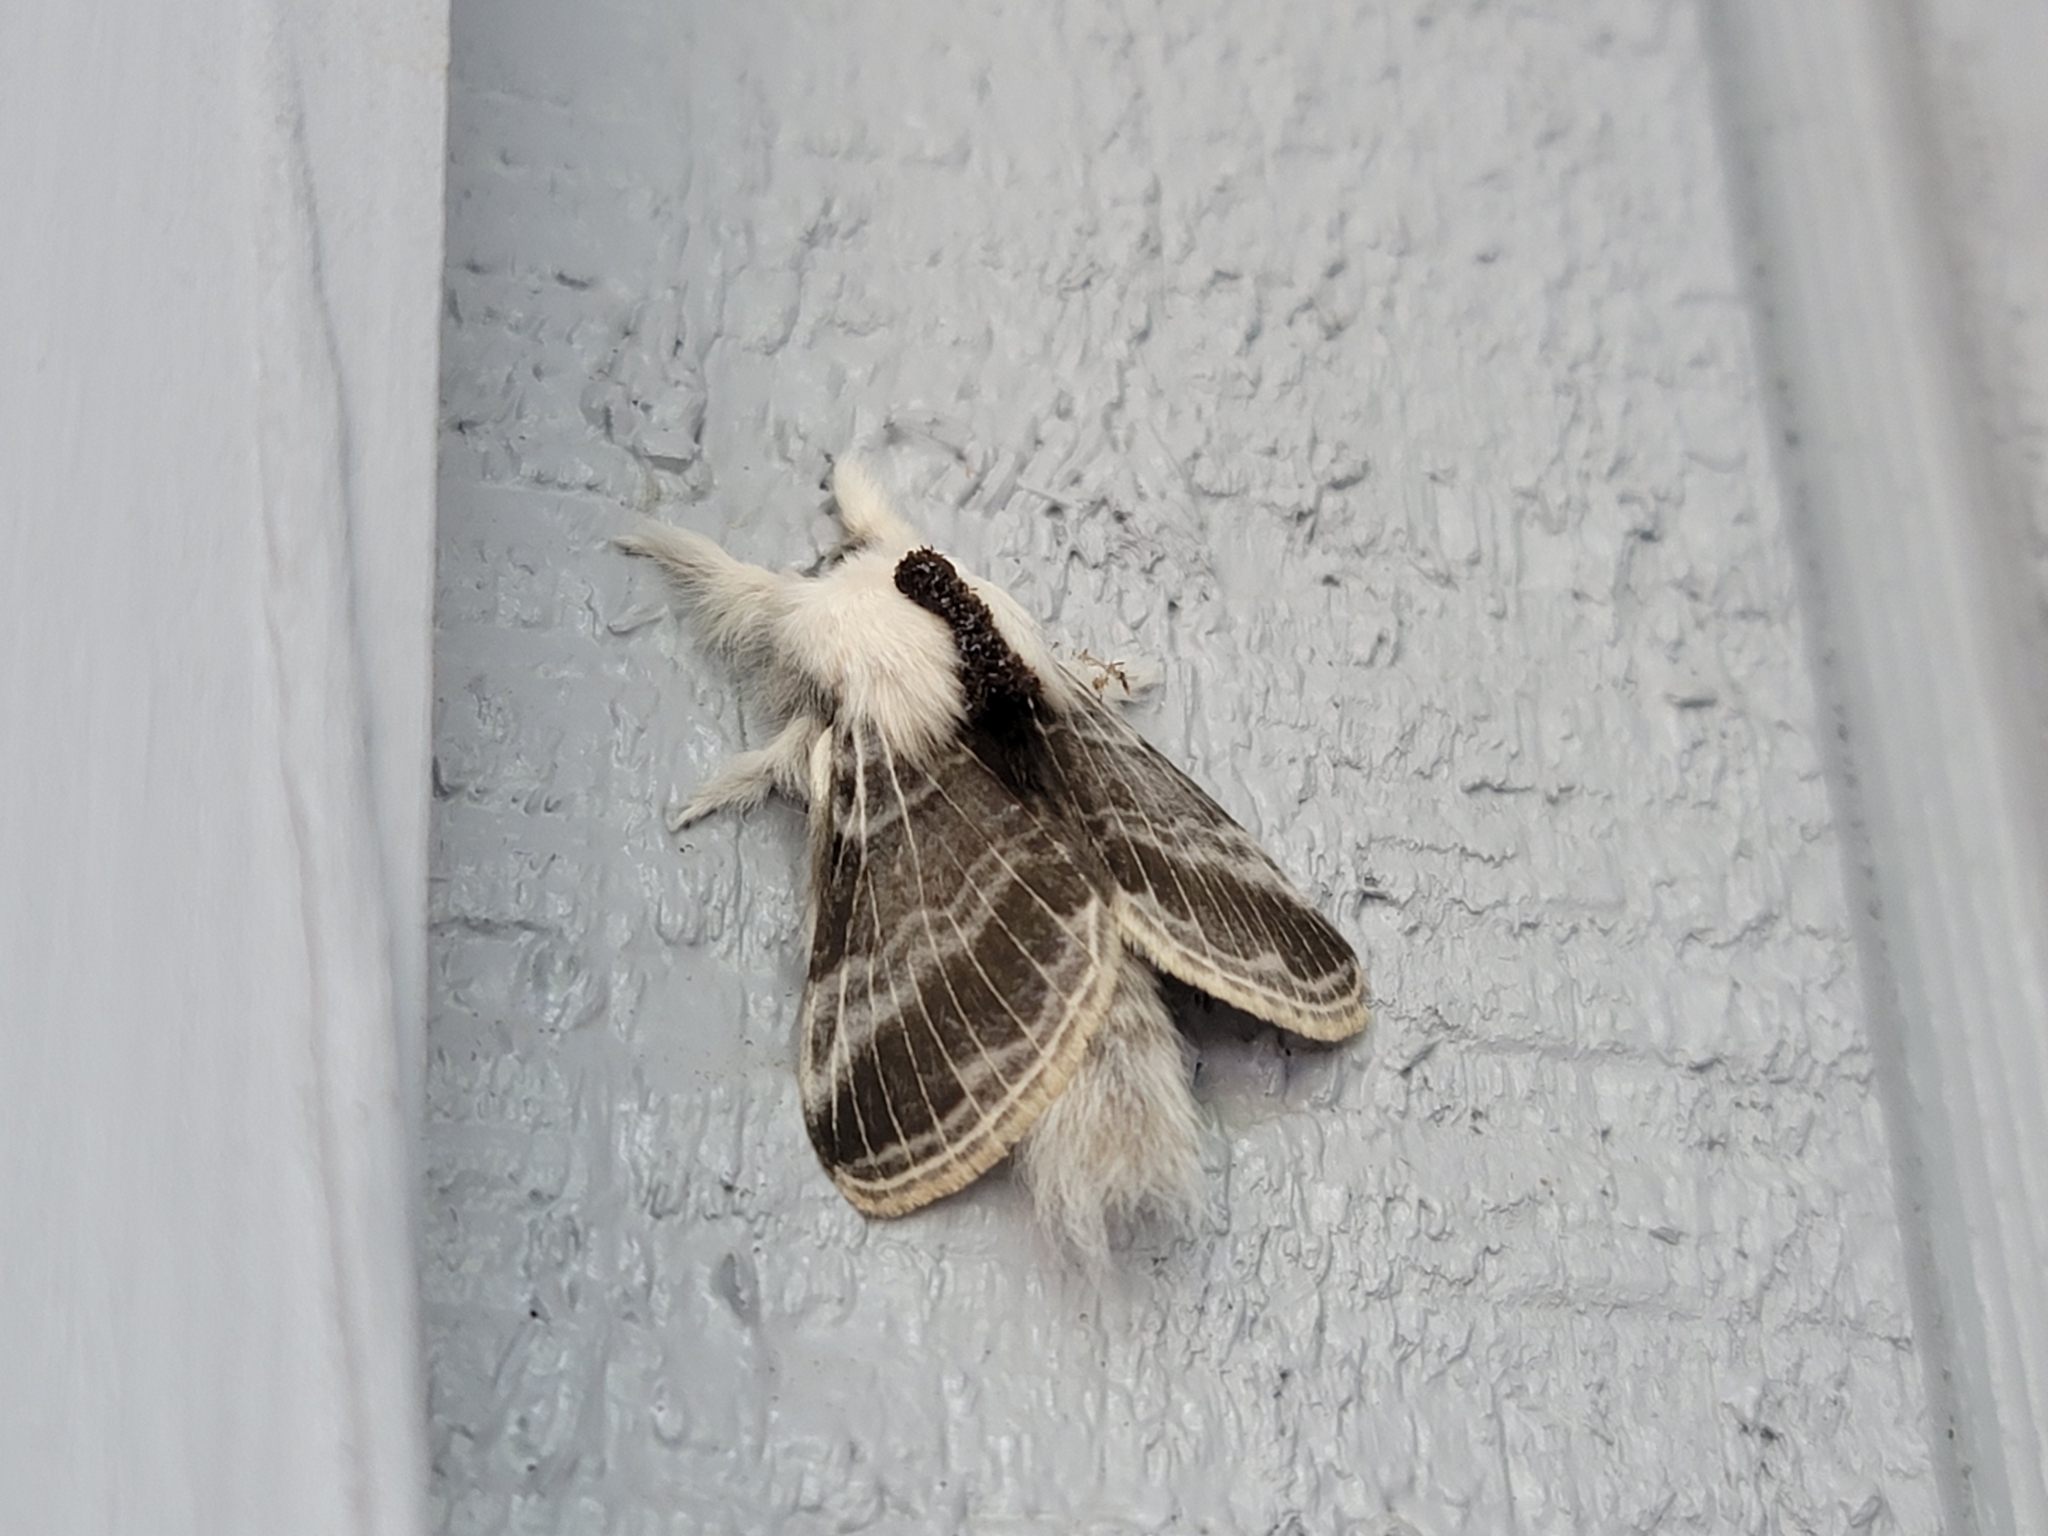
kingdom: Animalia
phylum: Arthropoda
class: Insecta
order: Lepidoptera
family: Lasiocampidae
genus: Tolype
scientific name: Tolype velleda
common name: Large tolype moth
